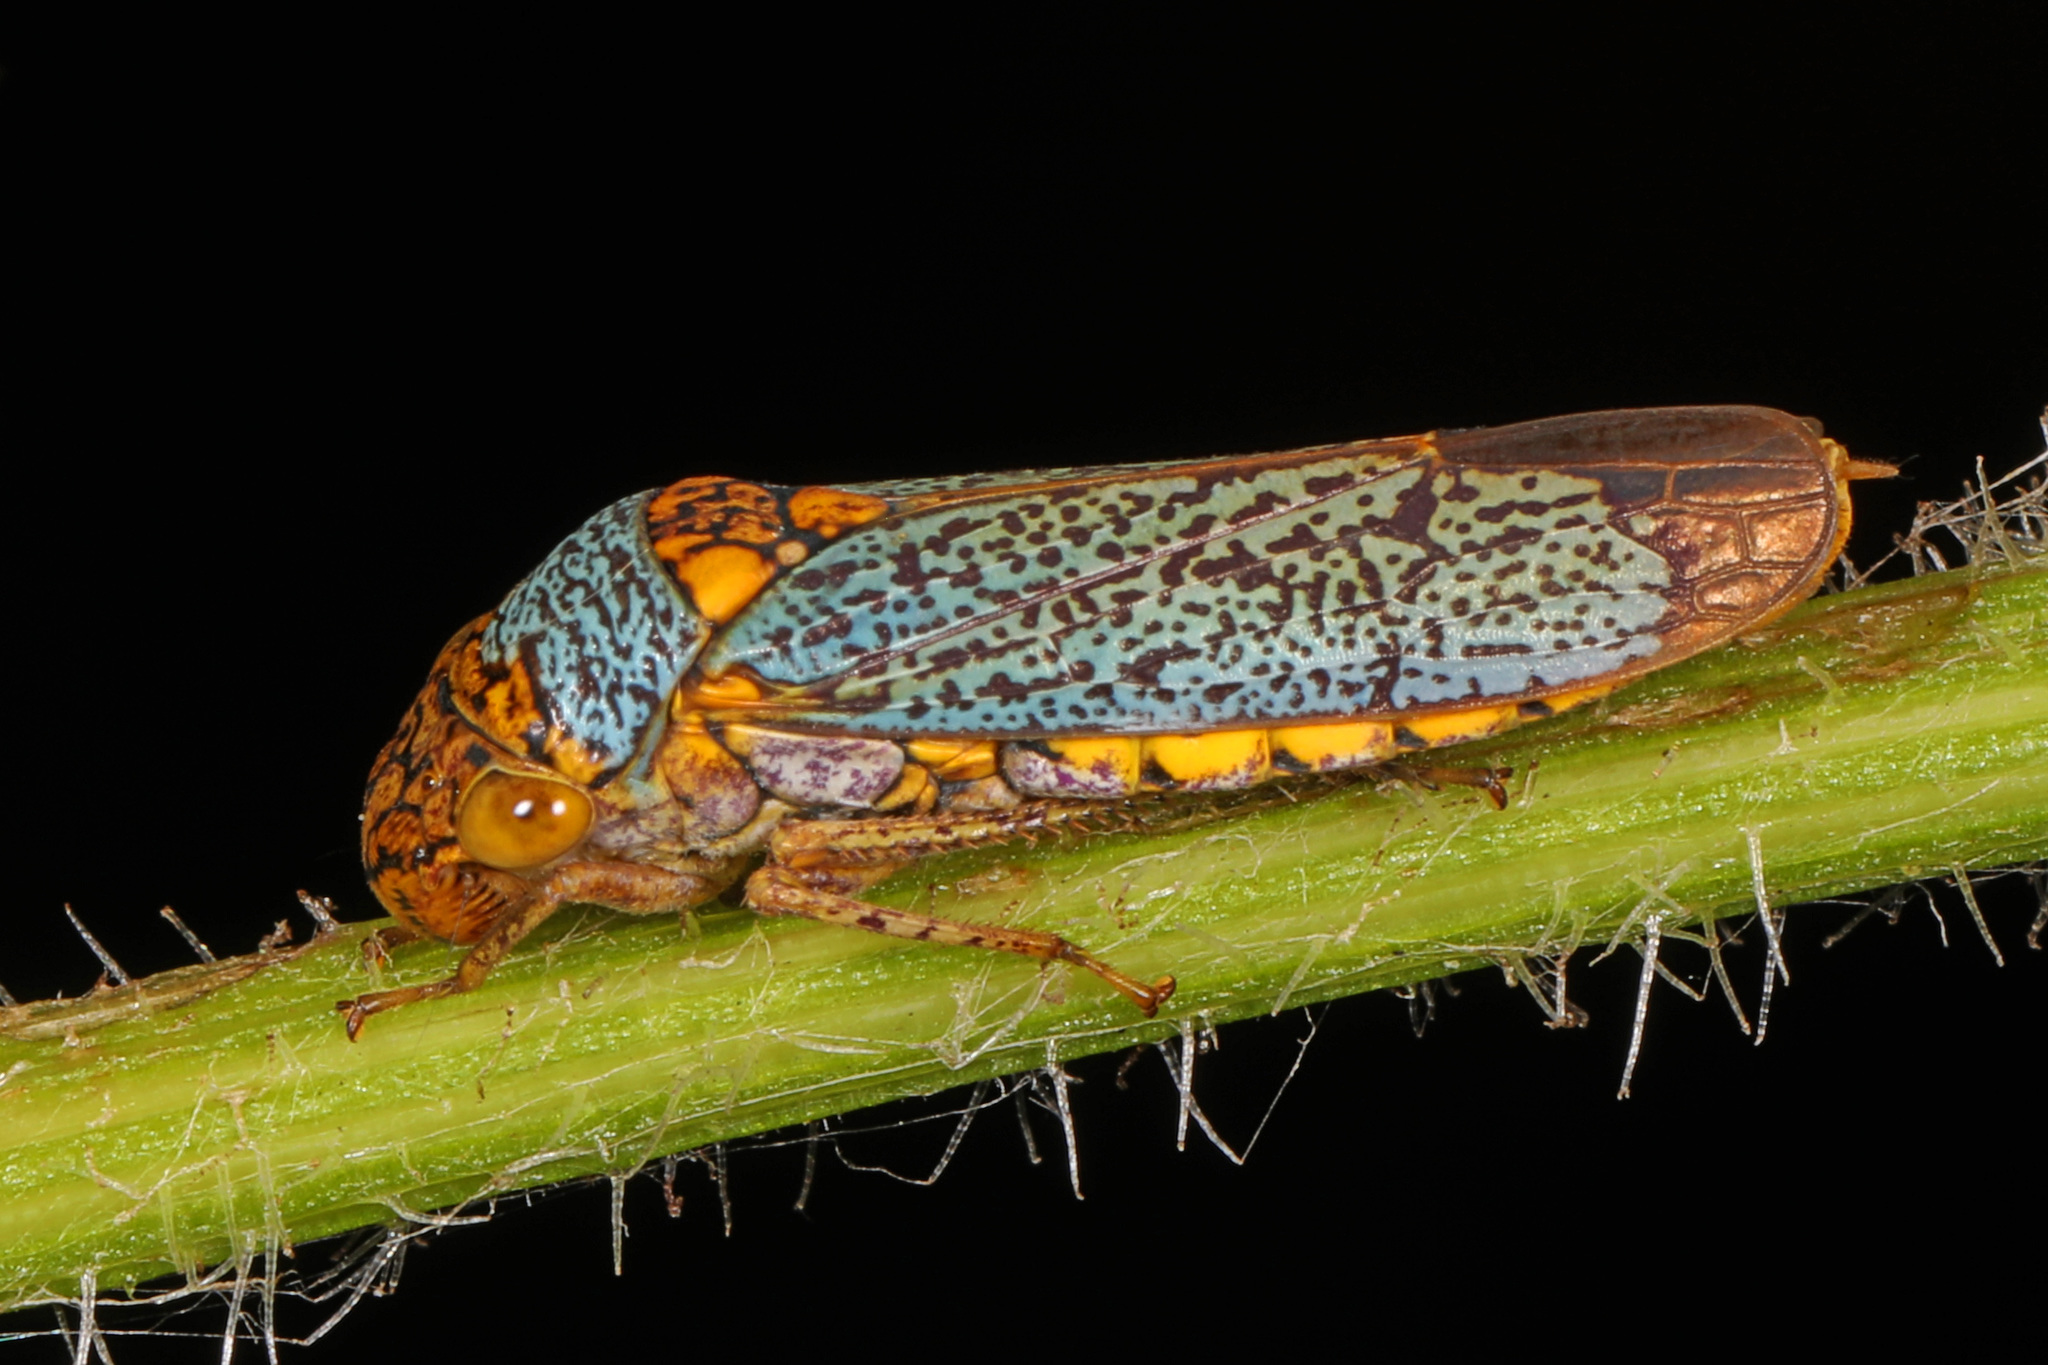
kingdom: Animalia
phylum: Arthropoda
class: Insecta
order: Hemiptera
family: Cicadellidae
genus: Oncometopia
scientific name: Oncometopia orbona
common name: Broad-headed sharpshooter
